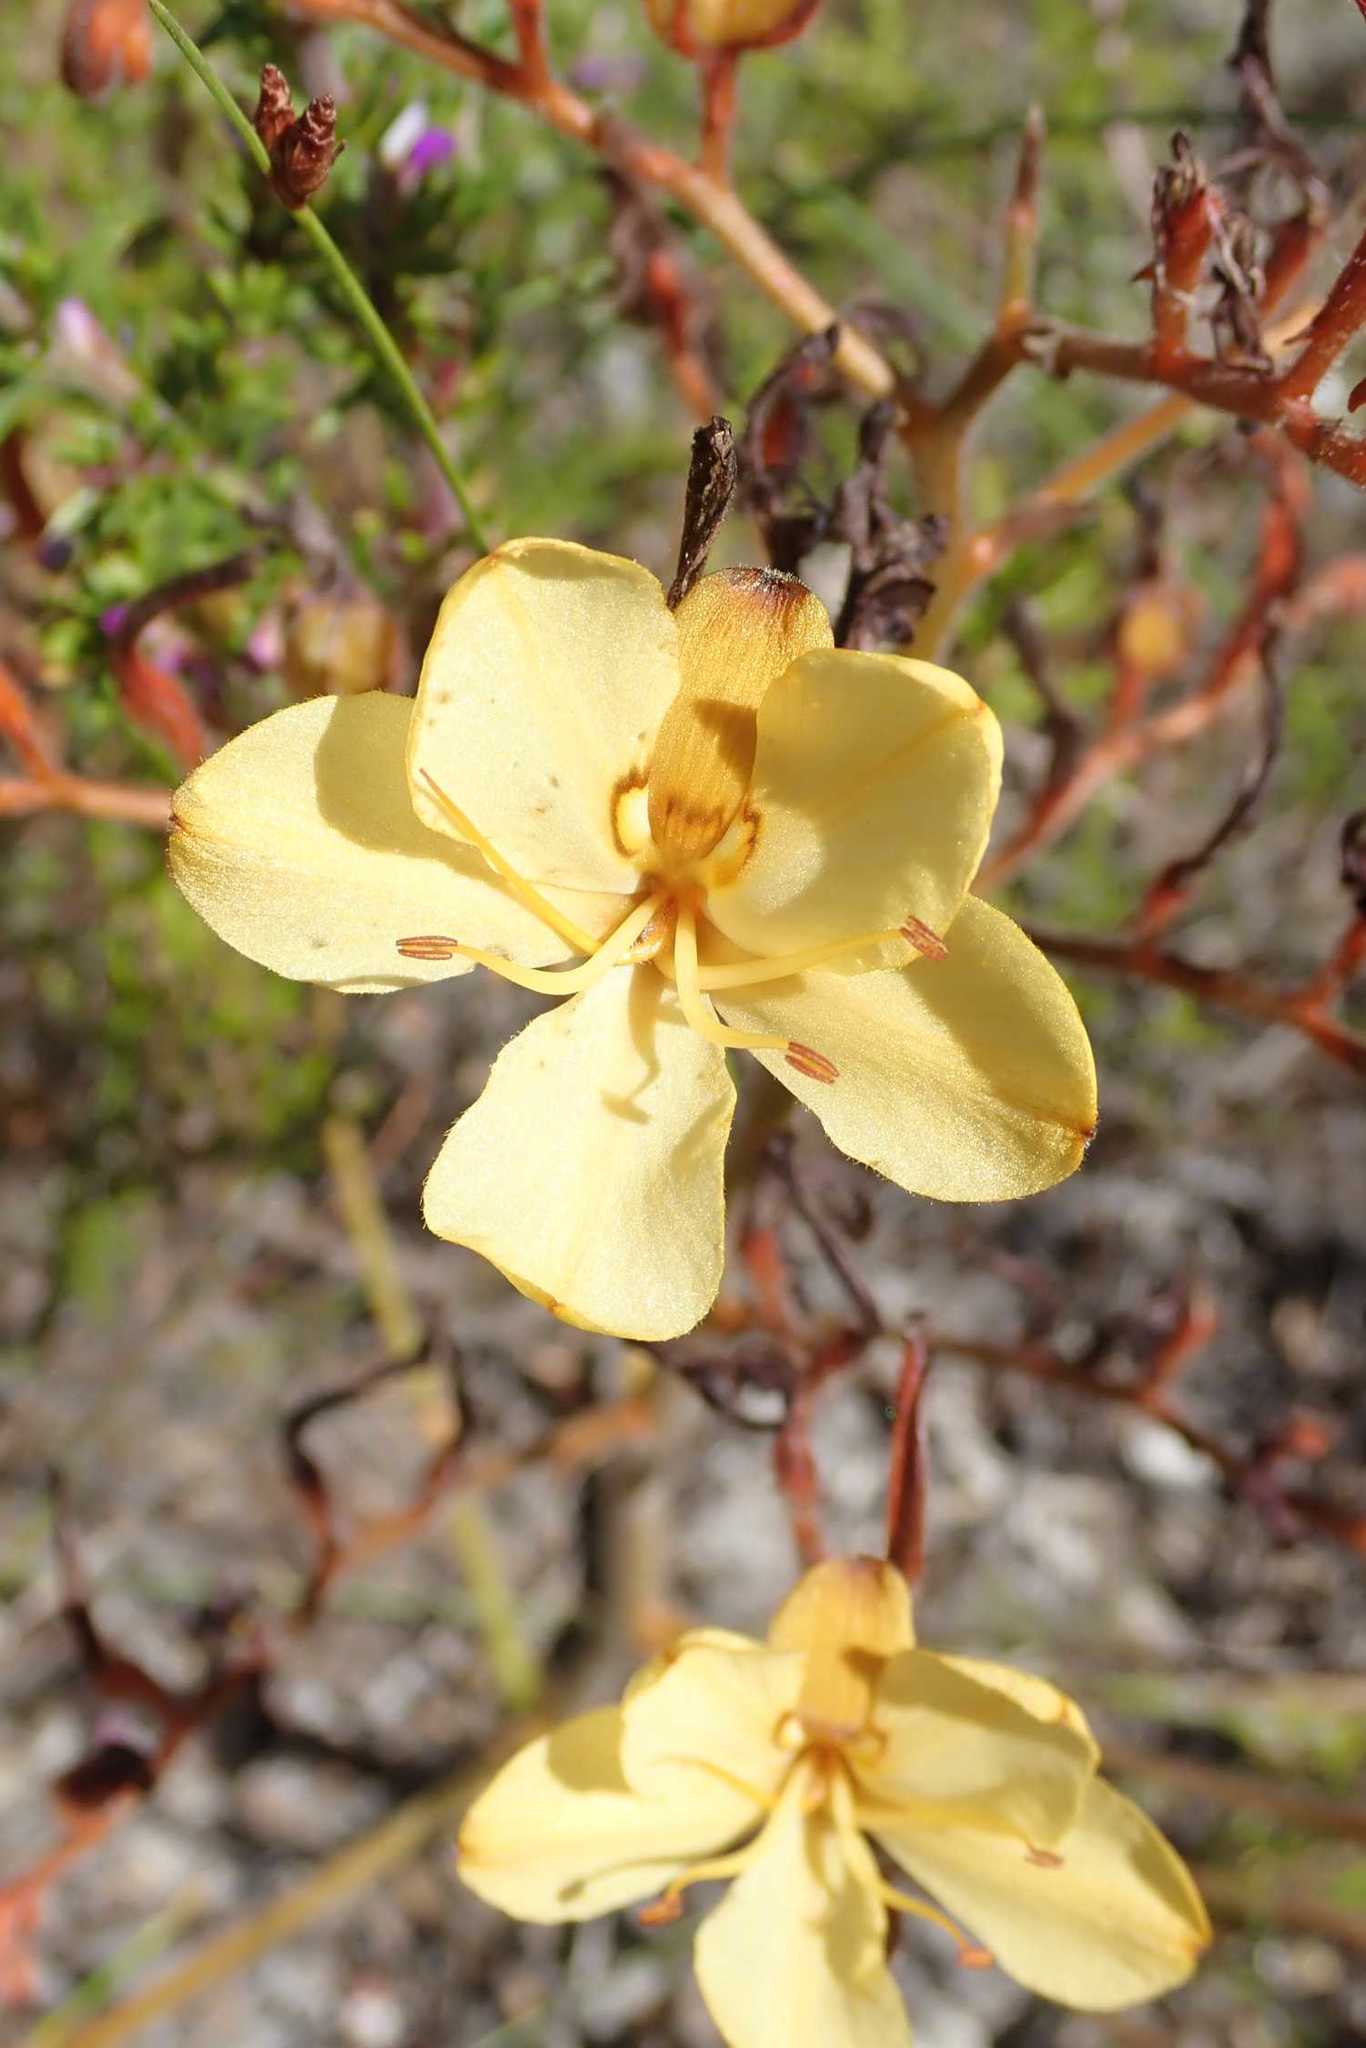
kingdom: Plantae
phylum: Tracheophyta
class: Liliopsida
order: Commelinales
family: Haemodoraceae
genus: Wachendorfia
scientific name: Wachendorfia paniculata
